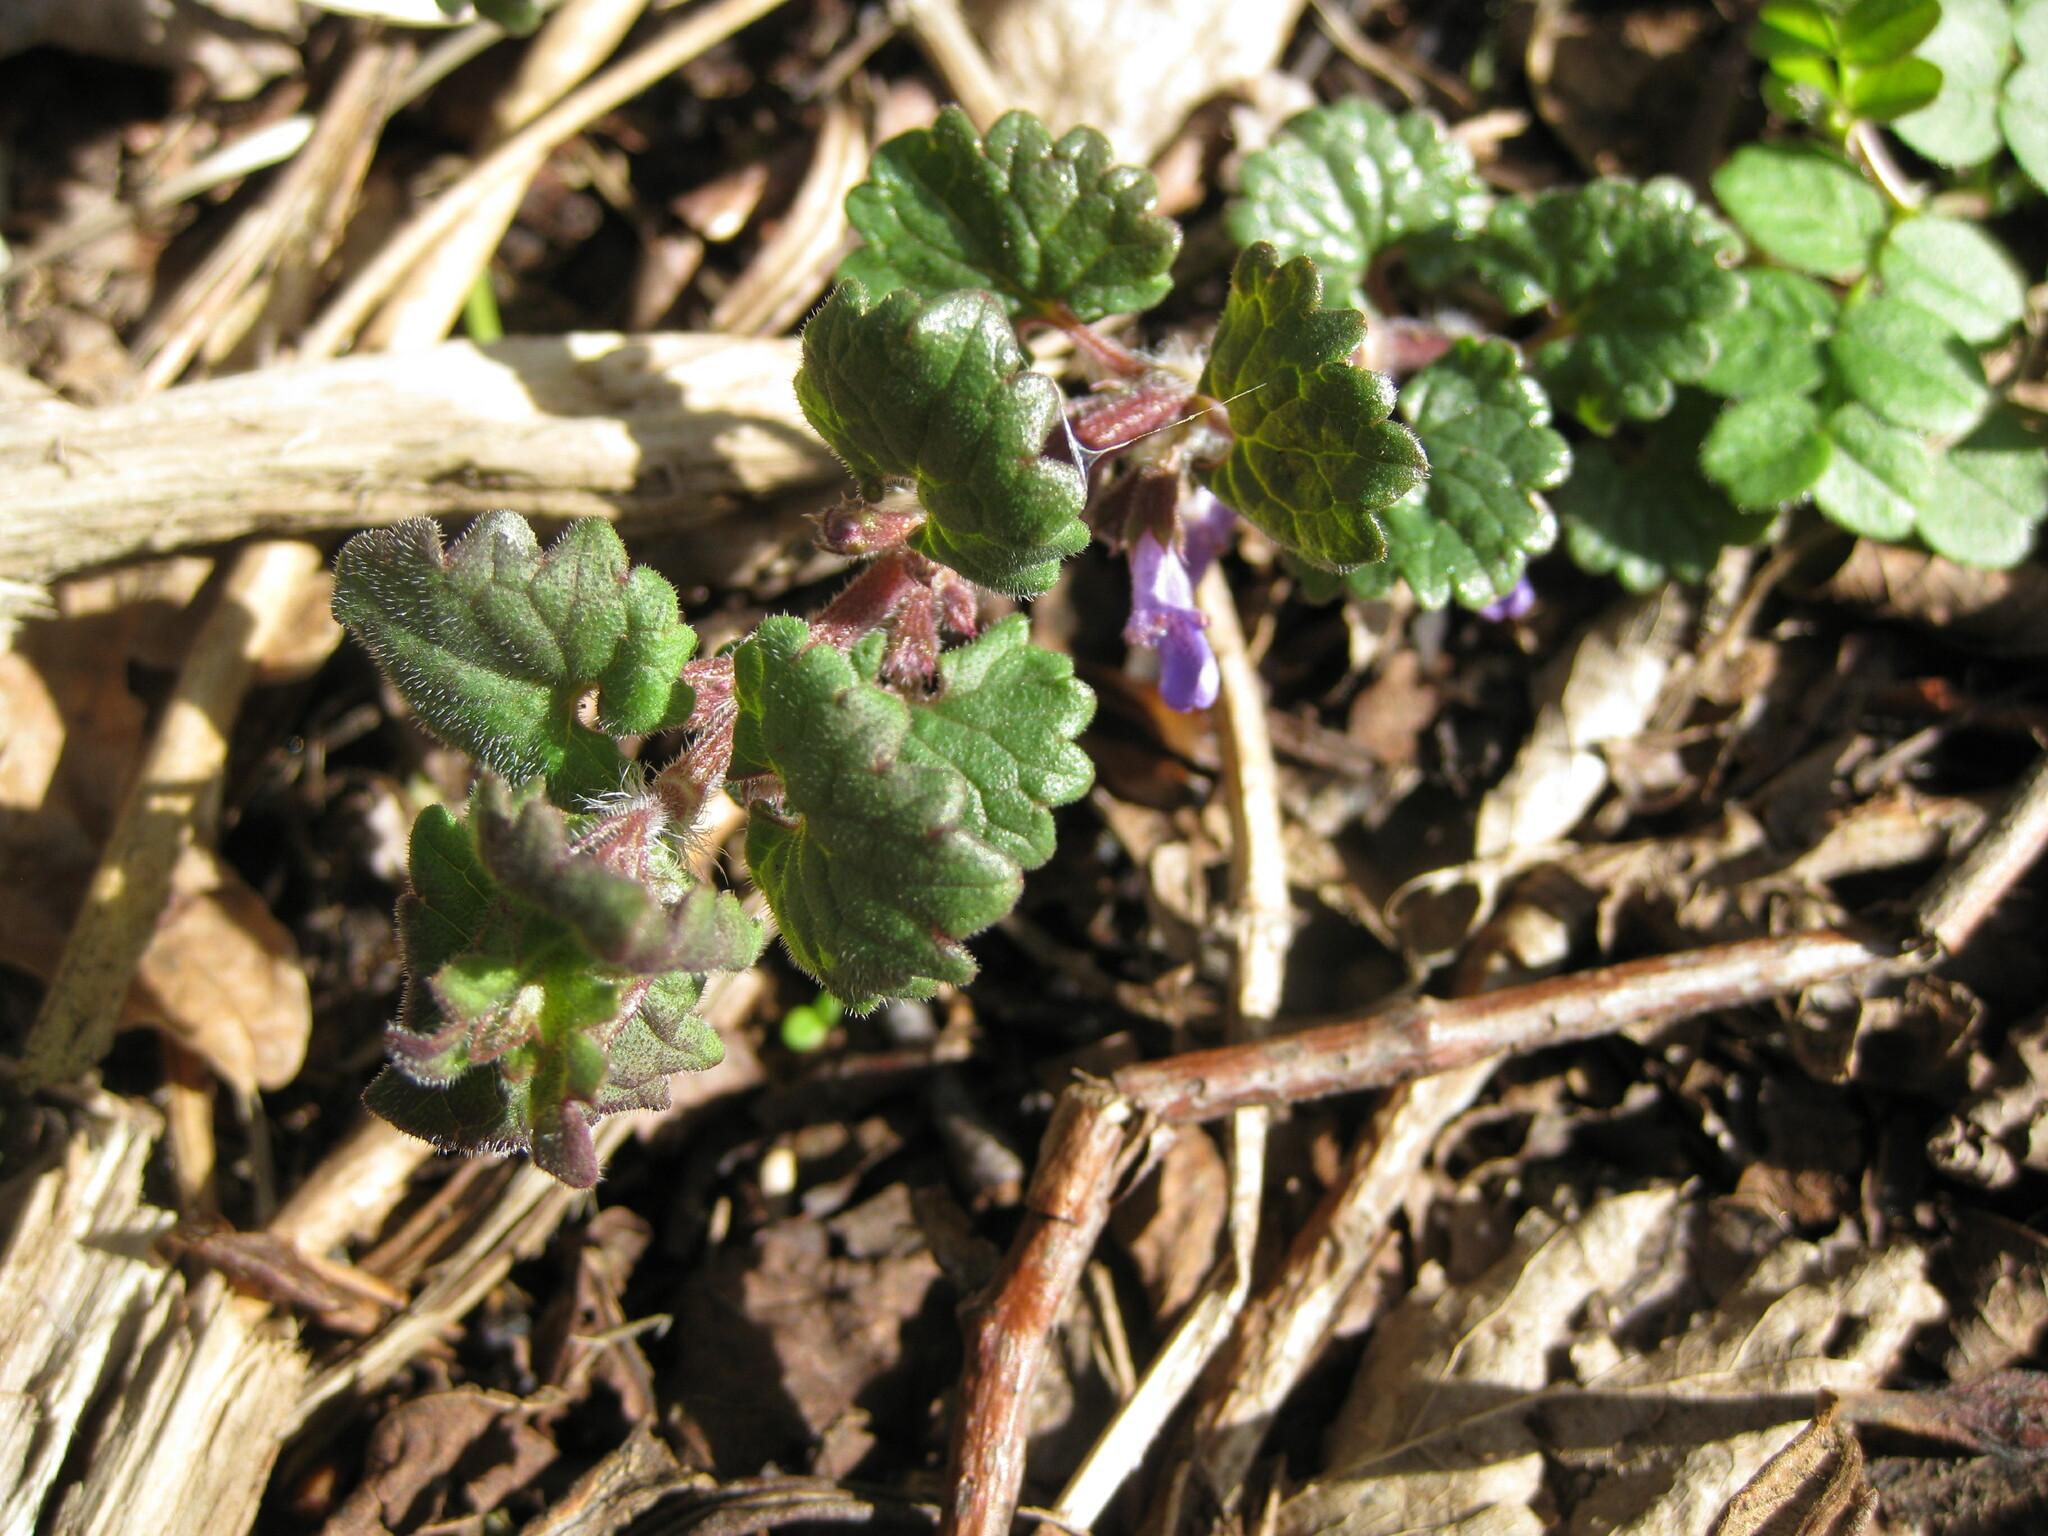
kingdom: Plantae
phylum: Tracheophyta
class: Magnoliopsida
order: Lamiales
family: Lamiaceae
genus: Glechoma
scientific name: Glechoma hederacea
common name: Ground ivy
